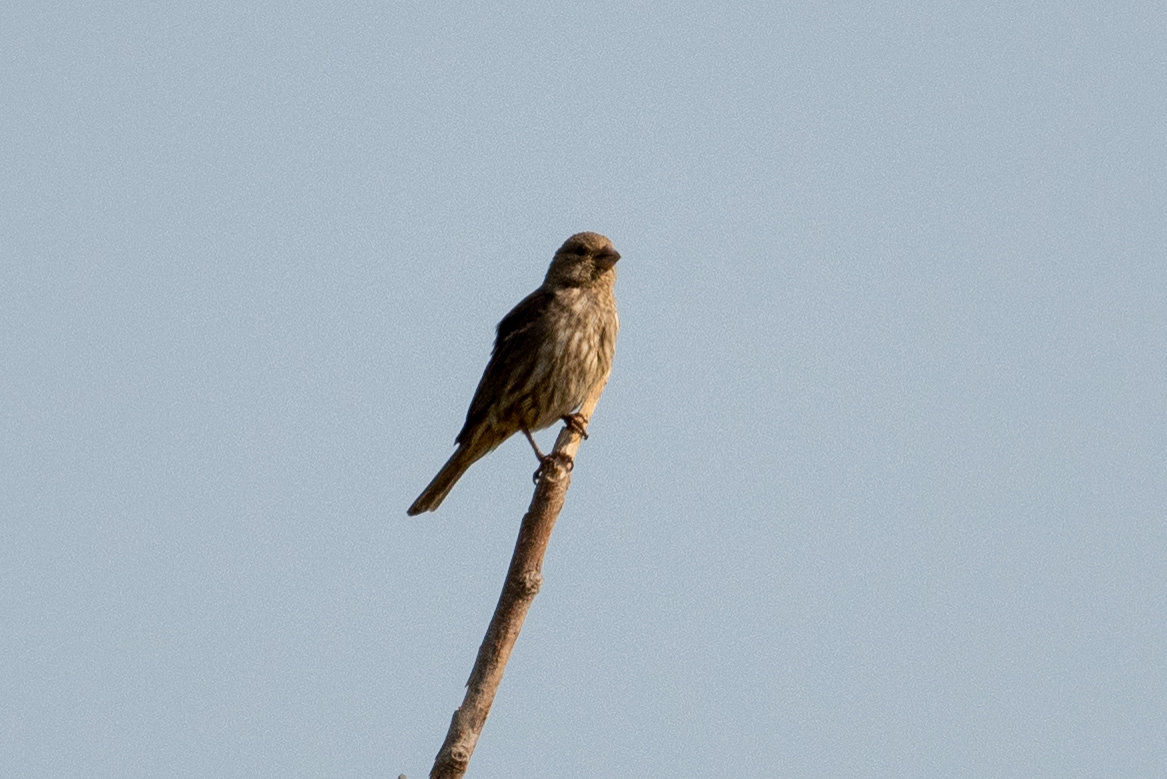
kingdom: Animalia
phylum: Chordata
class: Aves
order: Passeriformes
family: Fringillidae
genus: Haemorhous
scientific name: Haemorhous mexicanus
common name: House finch
